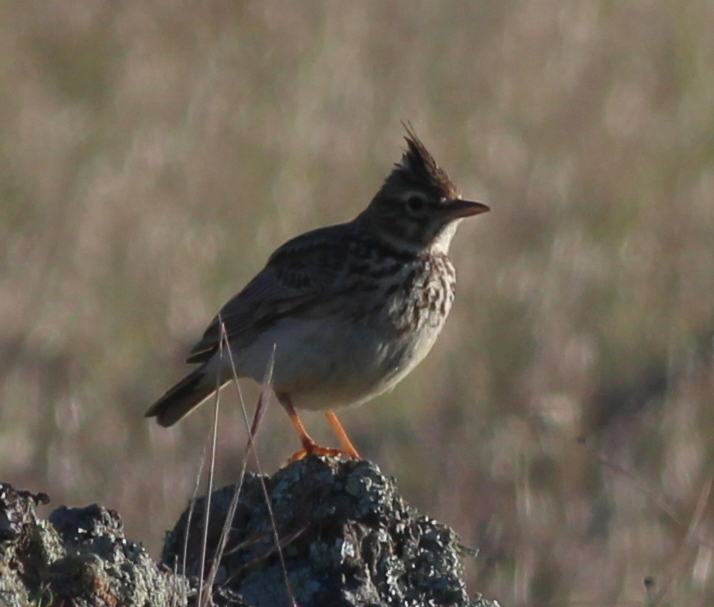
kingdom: Animalia
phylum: Chordata
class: Aves
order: Passeriformes
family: Alaudidae
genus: Galerida
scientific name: Galerida cristata
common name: Crested lark
